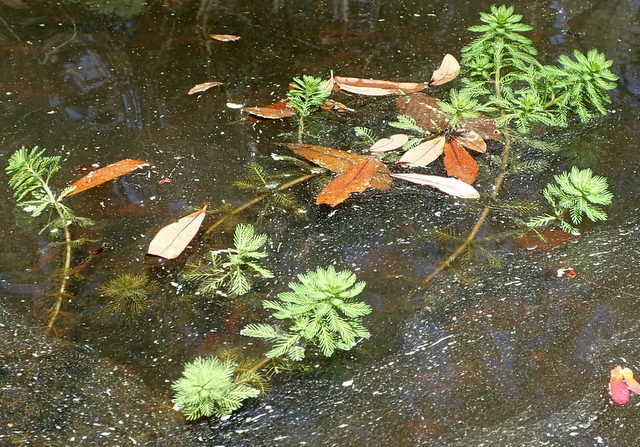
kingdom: Plantae
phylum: Tracheophyta
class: Magnoliopsida
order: Saxifragales
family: Haloragaceae
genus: Myriophyllum
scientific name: Myriophyllum aquaticum
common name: Parrot's feather
